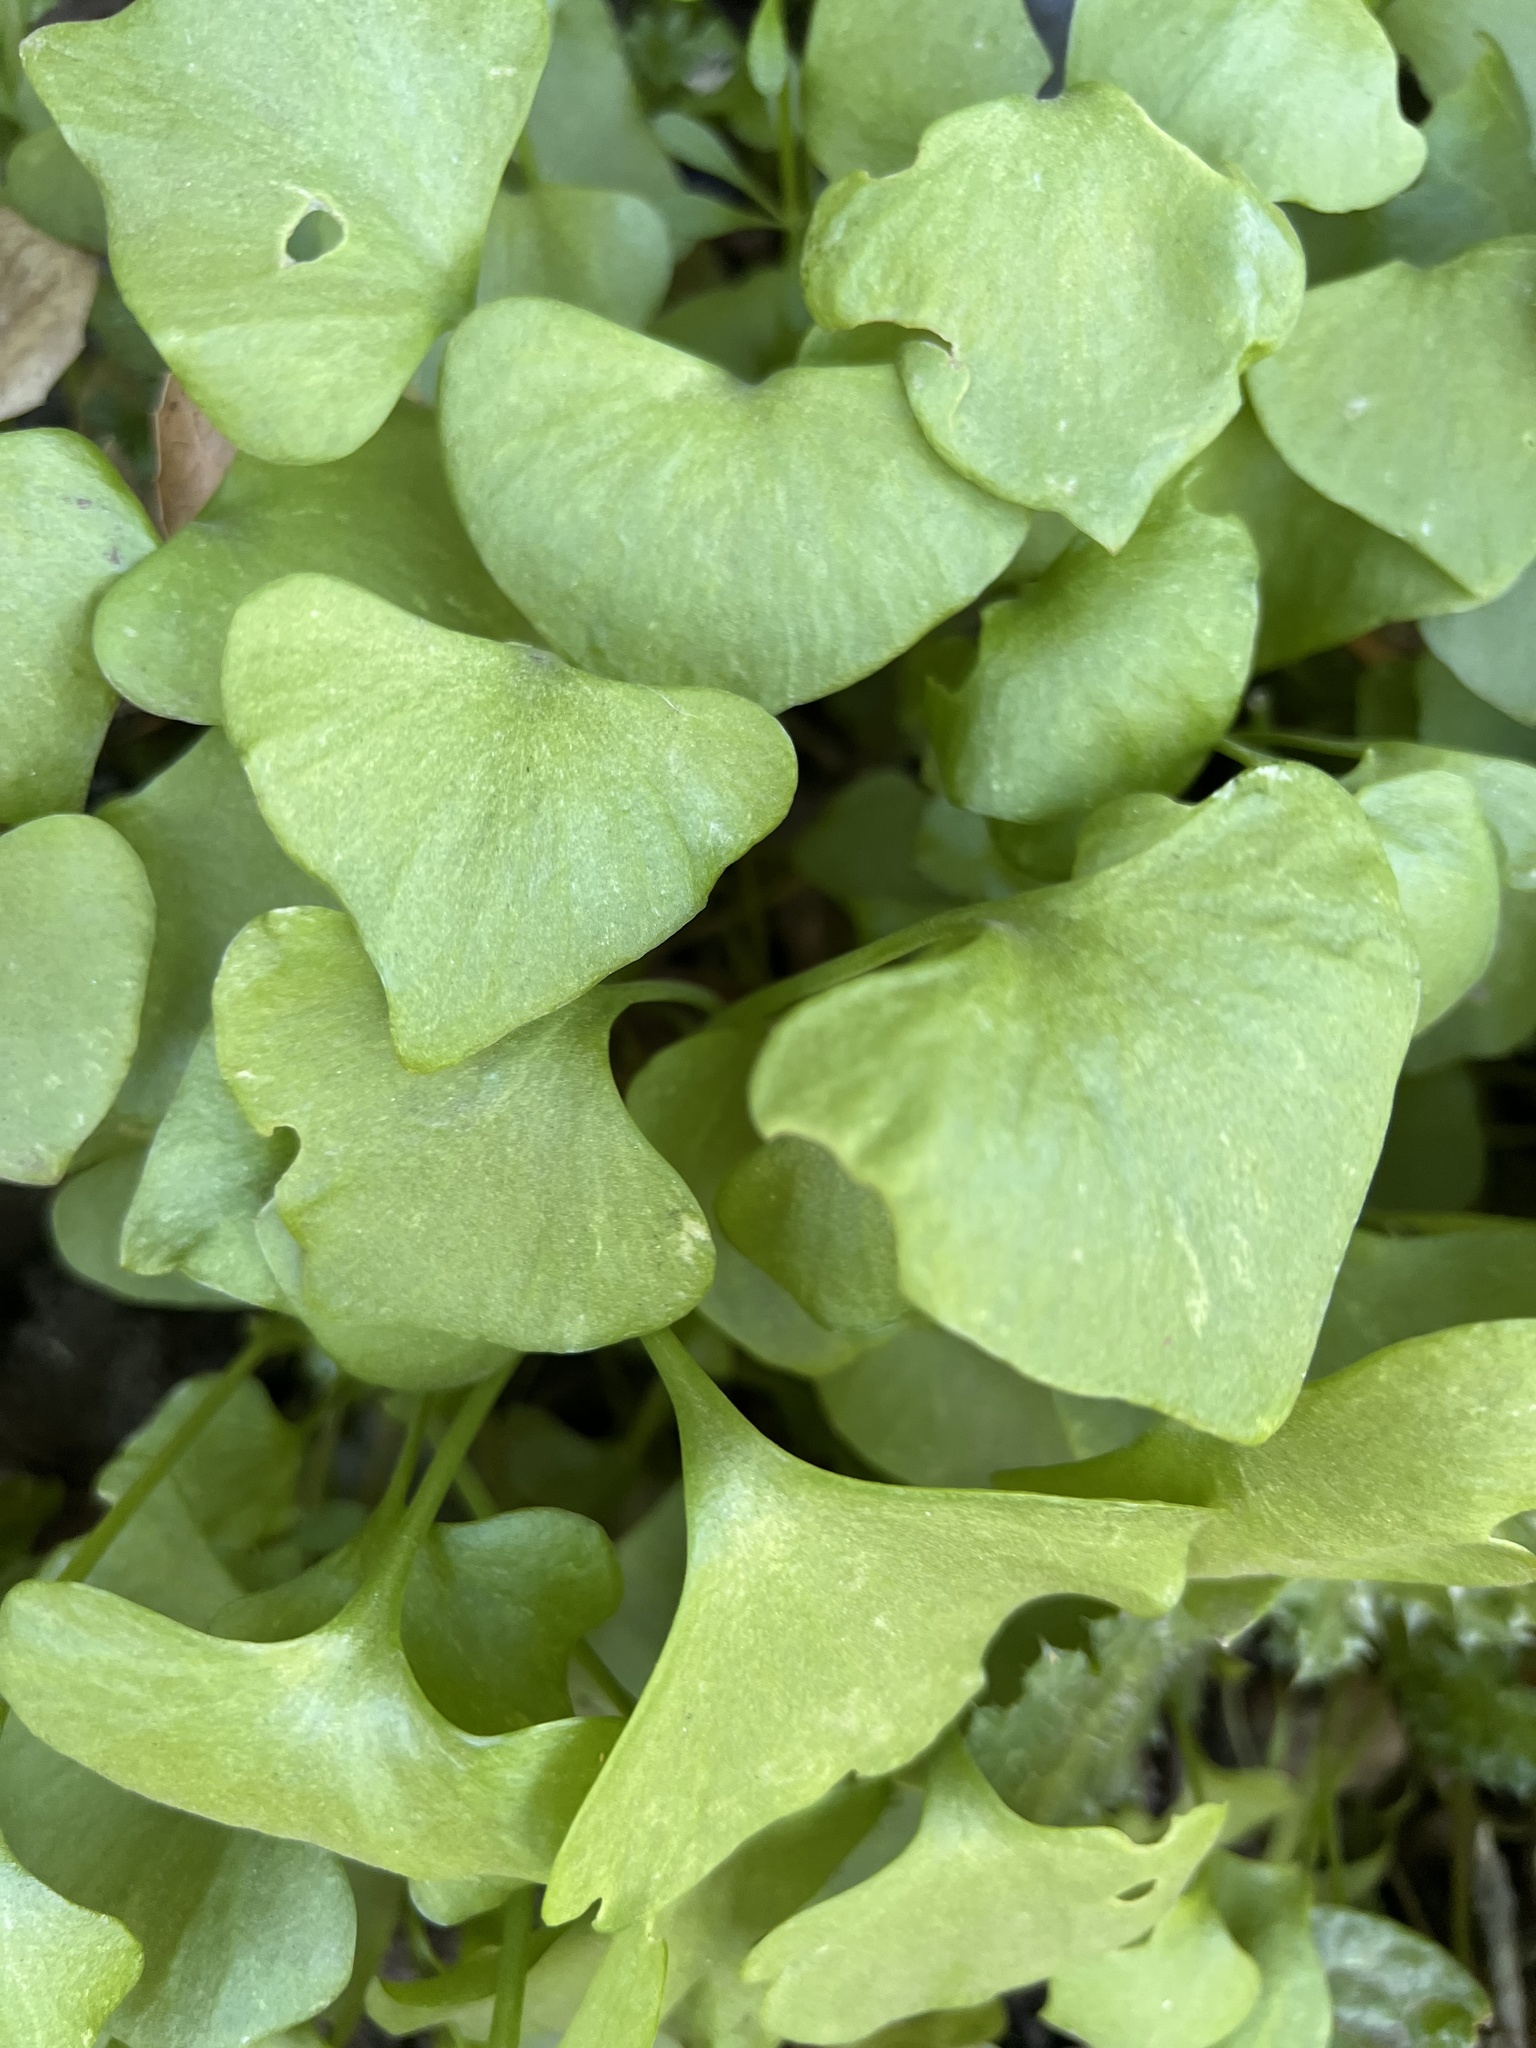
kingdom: Plantae
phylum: Tracheophyta
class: Magnoliopsida
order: Caryophyllales
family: Montiaceae
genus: Claytonia
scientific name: Claytonia perfoliata
